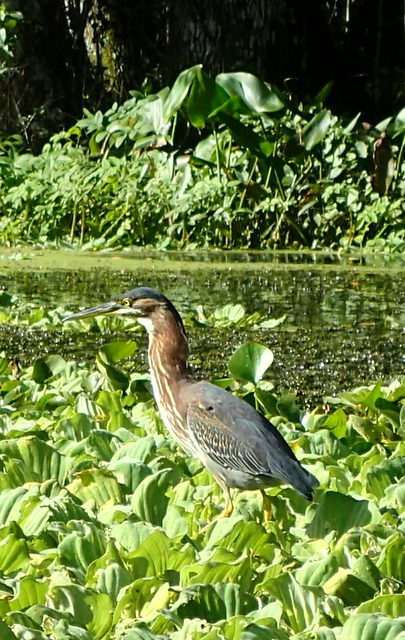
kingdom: Animalia
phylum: Chordata
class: Aves
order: Pelecaniformes
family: Ardeidae
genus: Butorides
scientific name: Butorides virescens
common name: Green heron
